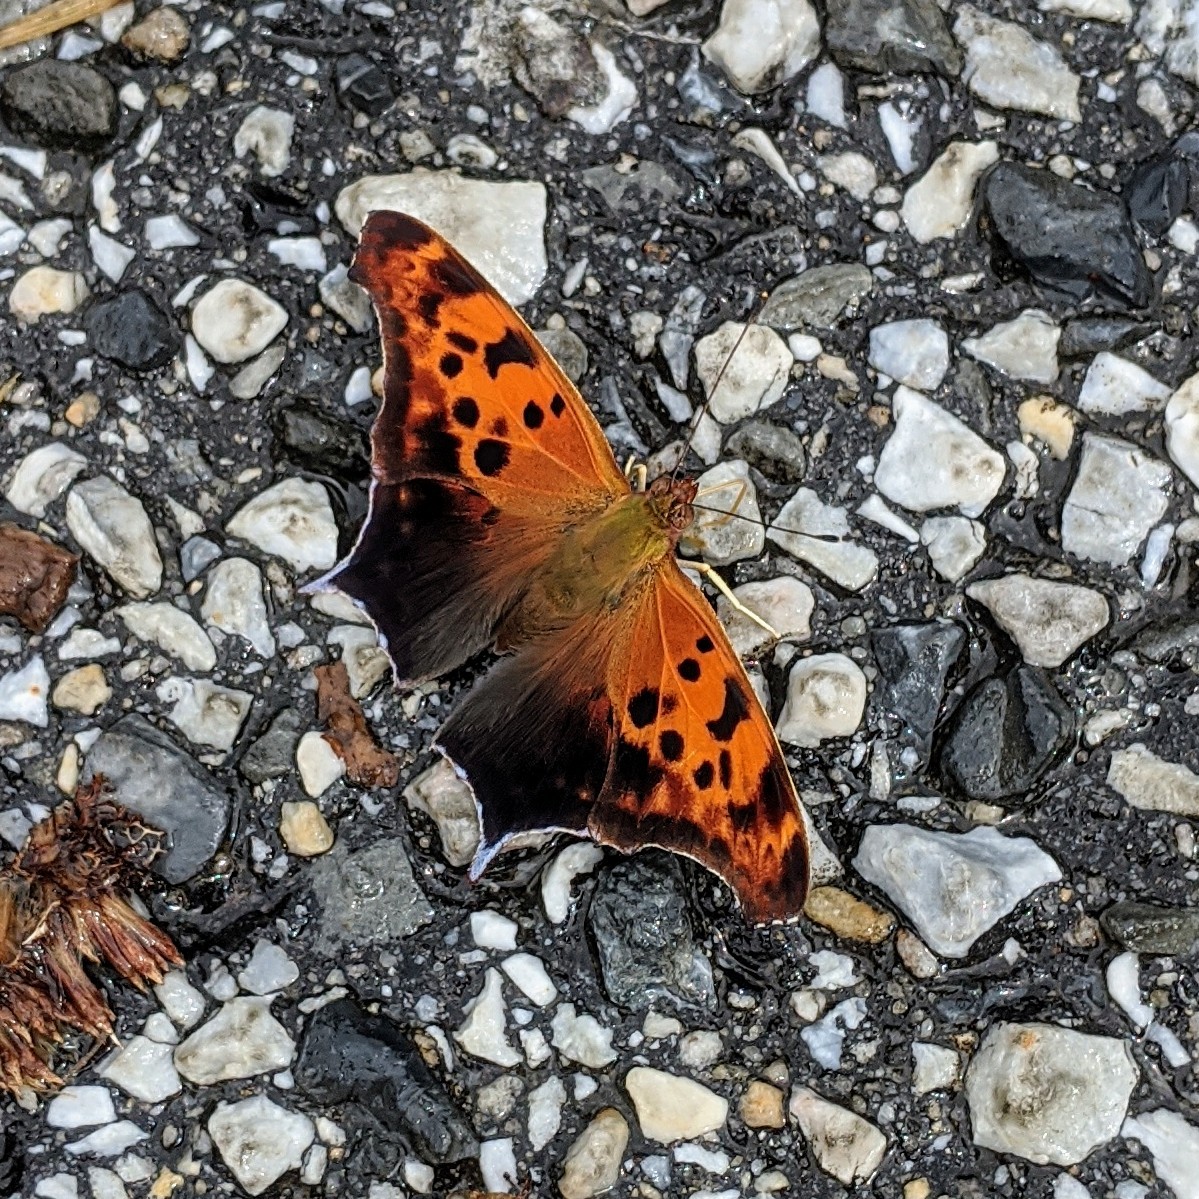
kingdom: Animalia
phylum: Arthropoda
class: Insecta
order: Lepidoptera
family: Nymphalidae
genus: Polygonia
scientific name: Polygonia interrogationis
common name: Question mark
